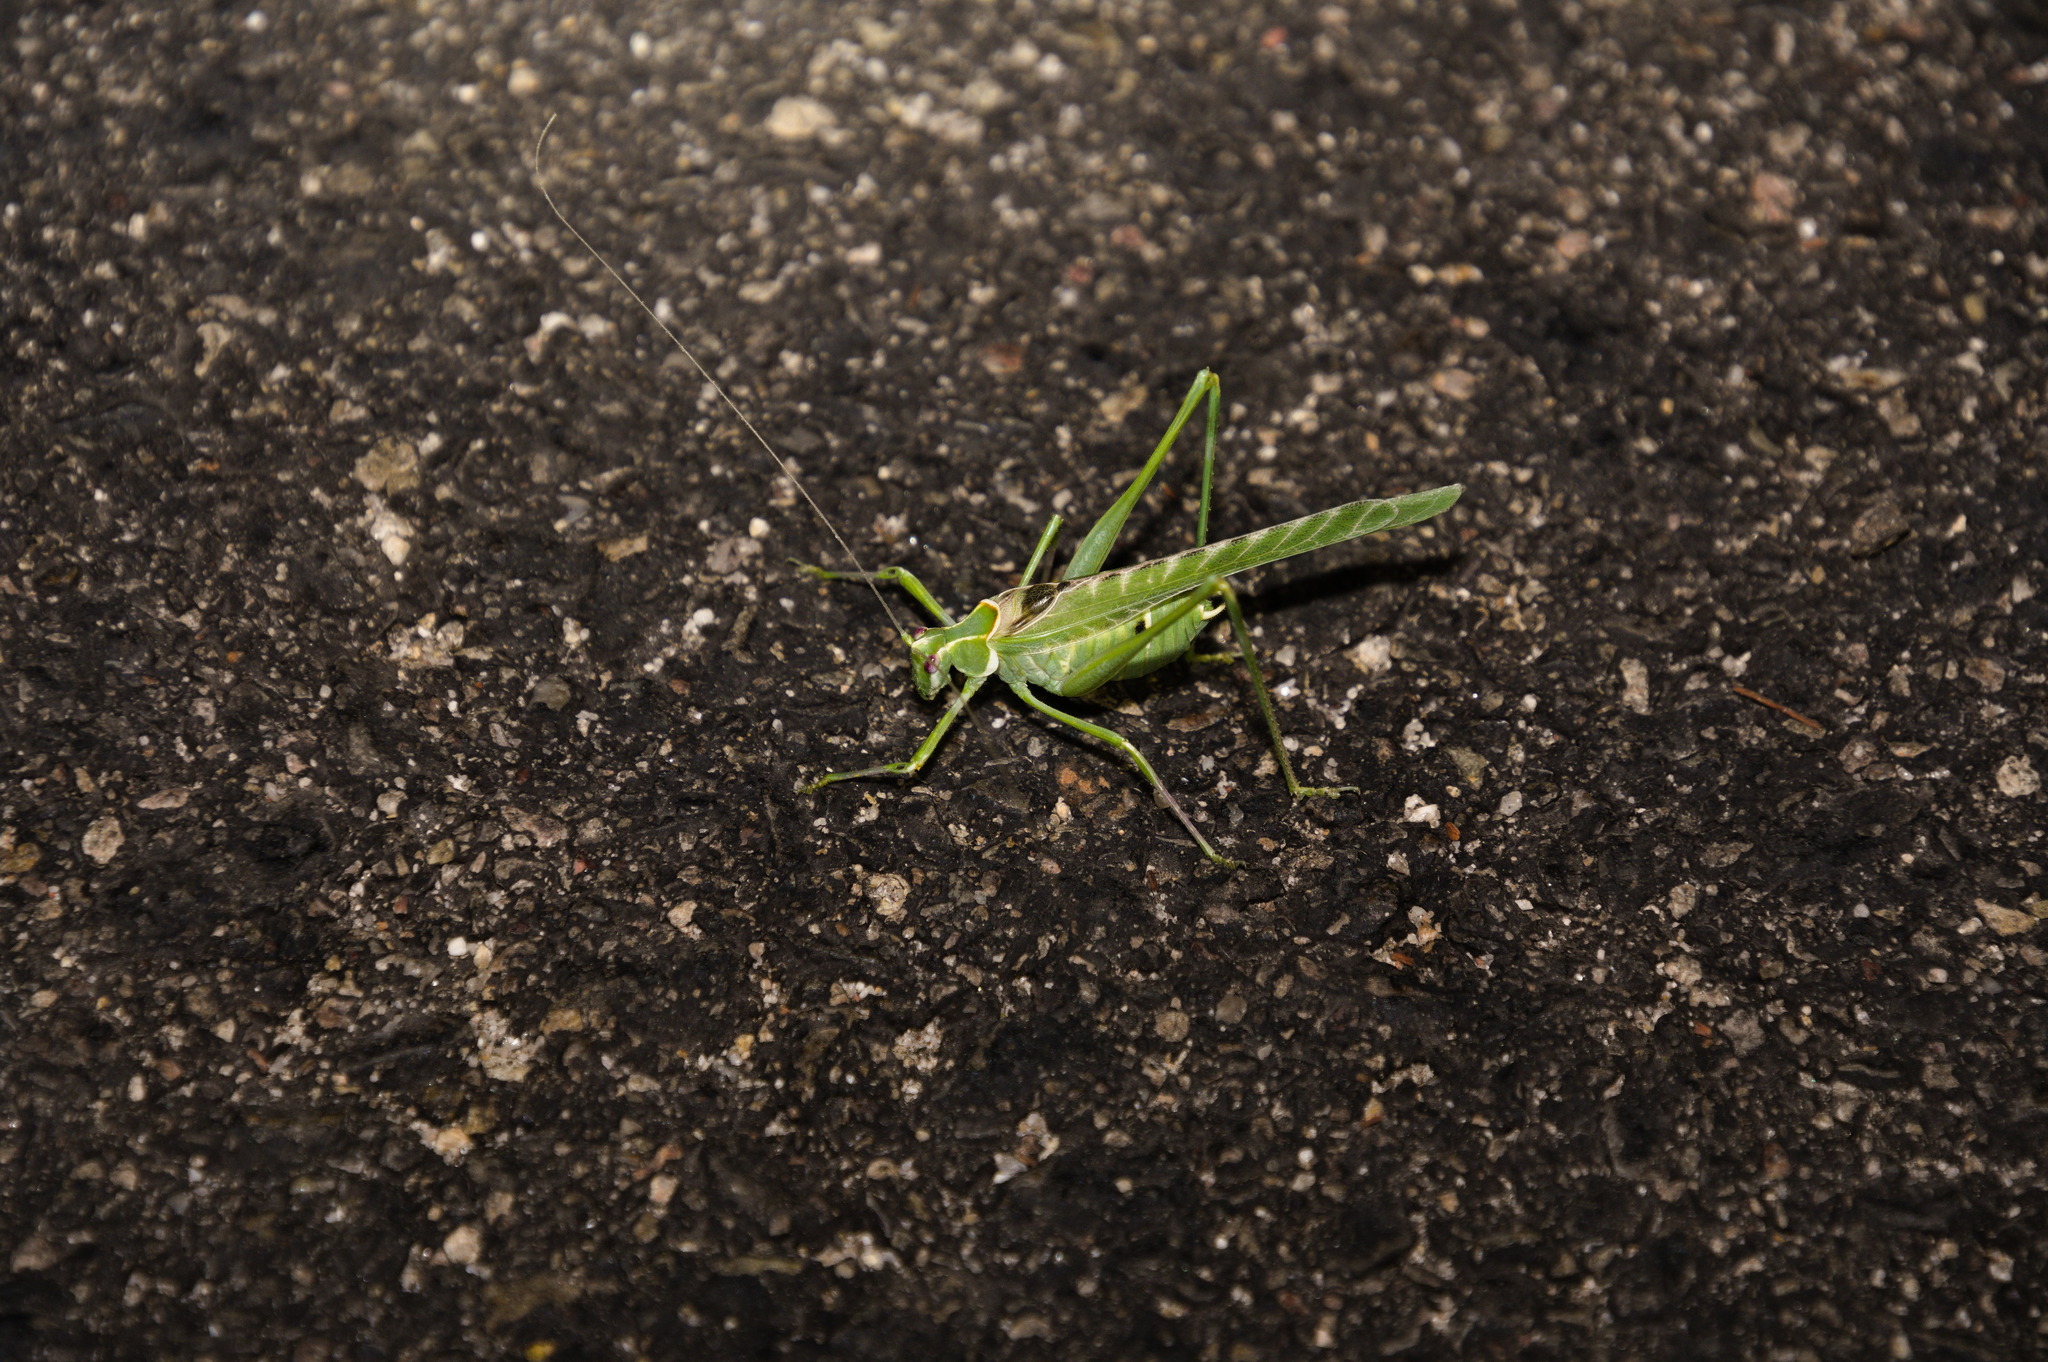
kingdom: Animalia
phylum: Arthropoda
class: Insecta
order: Orthoptera
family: Tettigoniidae
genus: Insara
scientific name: Insara elegans
